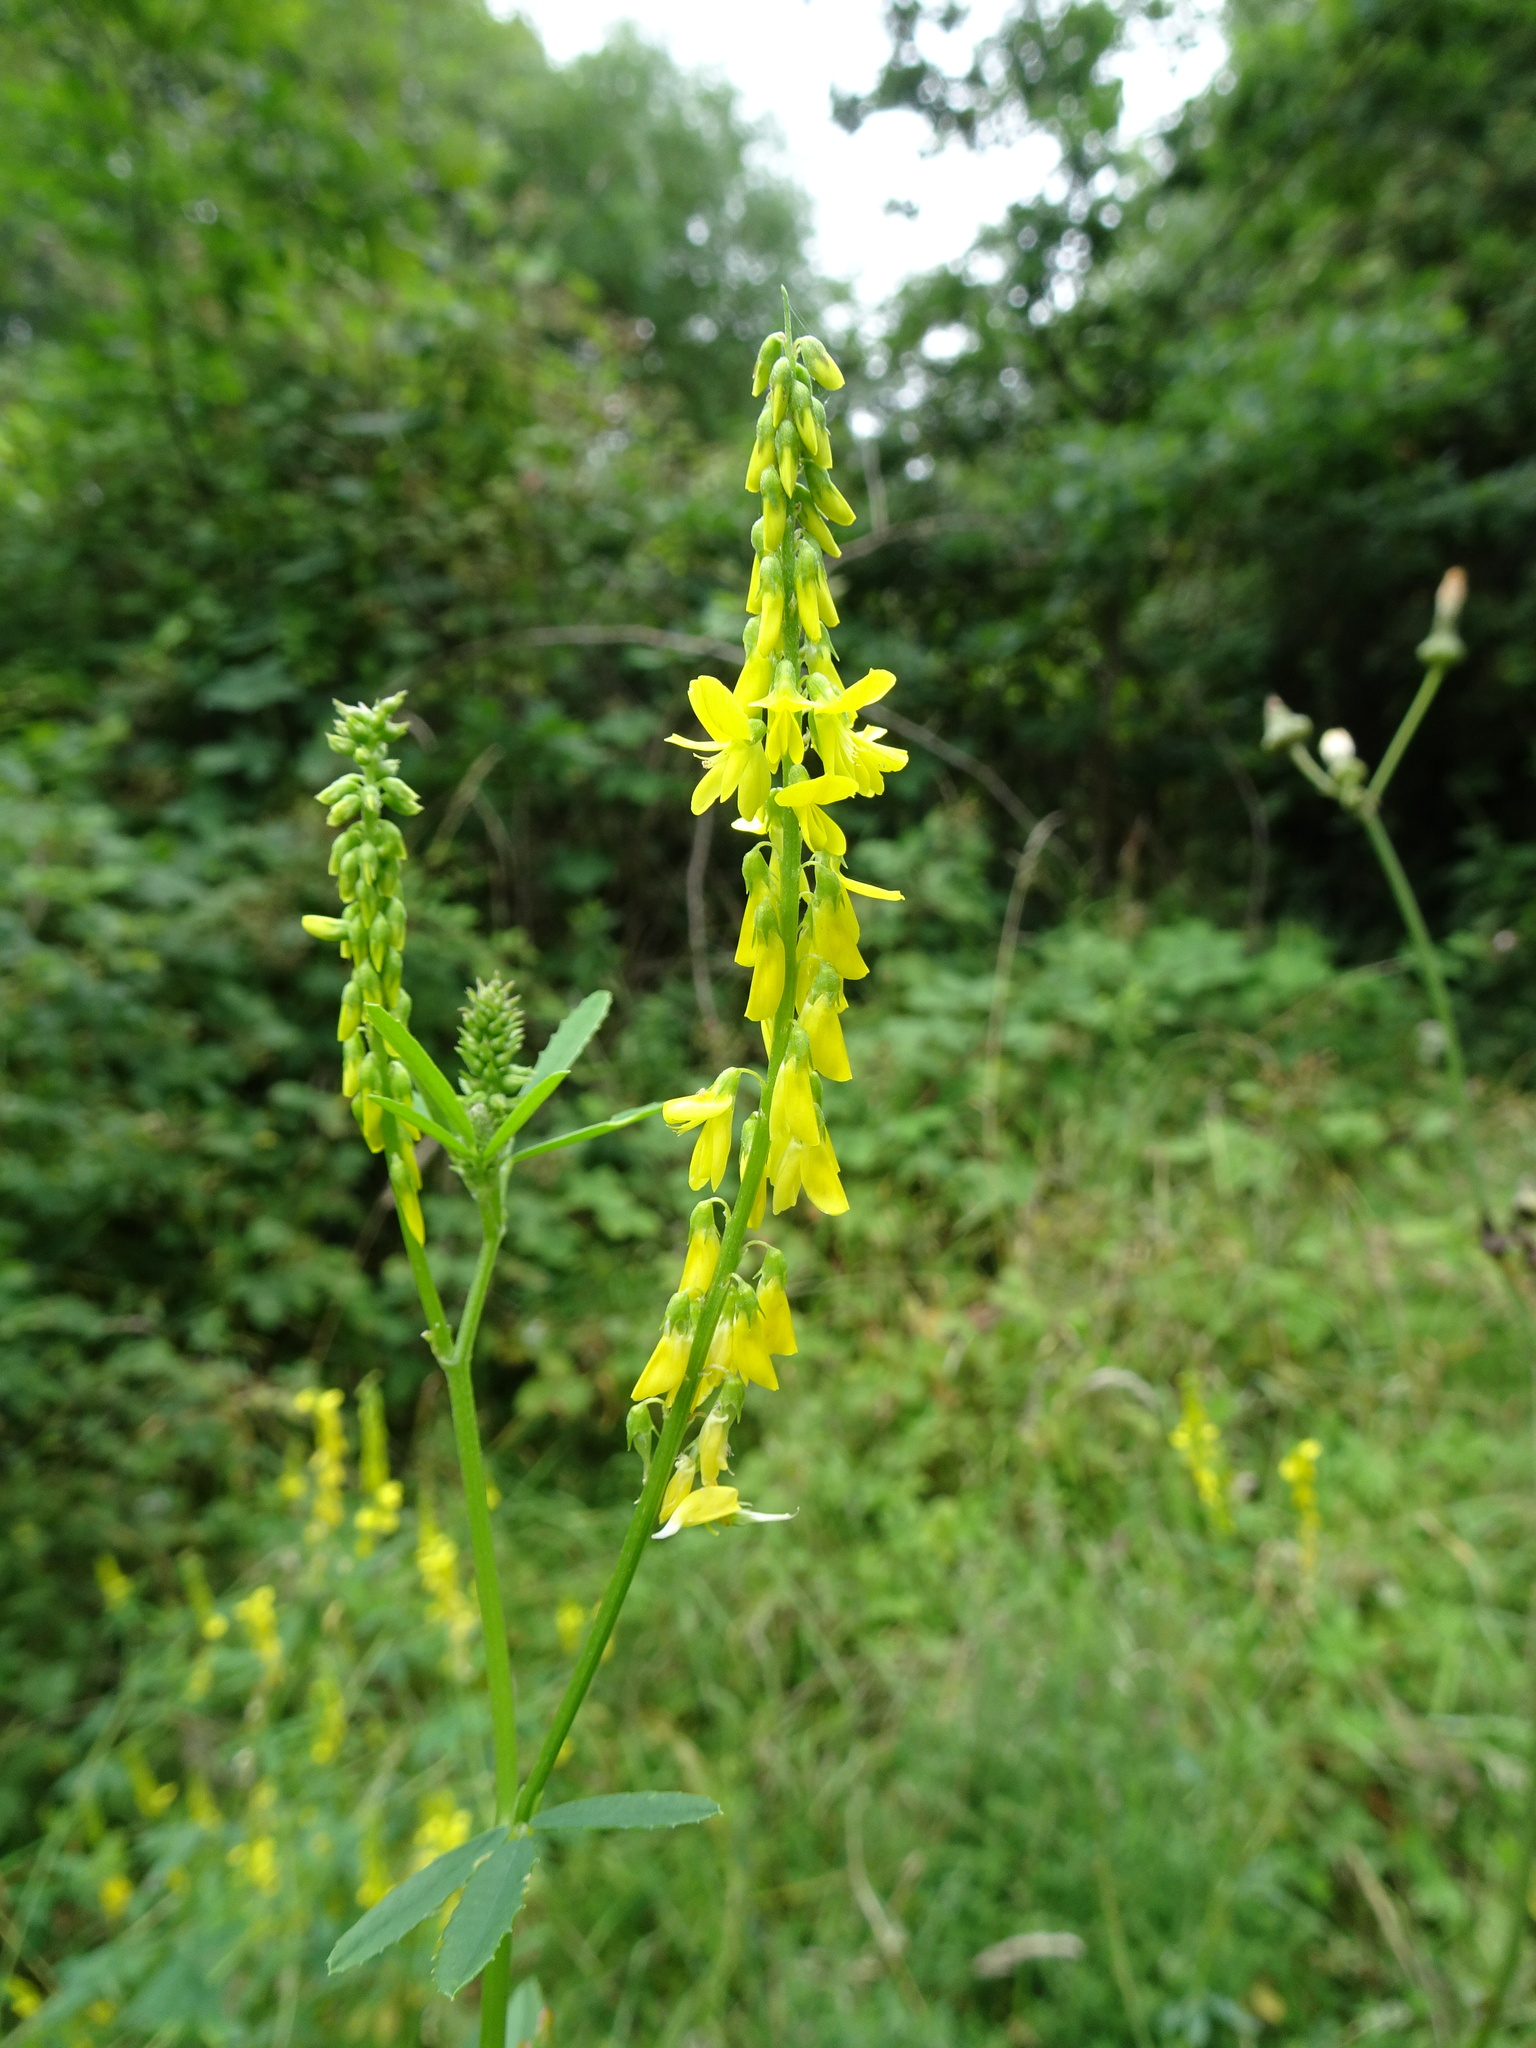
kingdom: Plantae
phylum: Tracheophyta
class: Magnoliopsida
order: Fabales
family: Fabaceae
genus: Melilotus
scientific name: Melilotus officinalis
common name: Sweetclover
